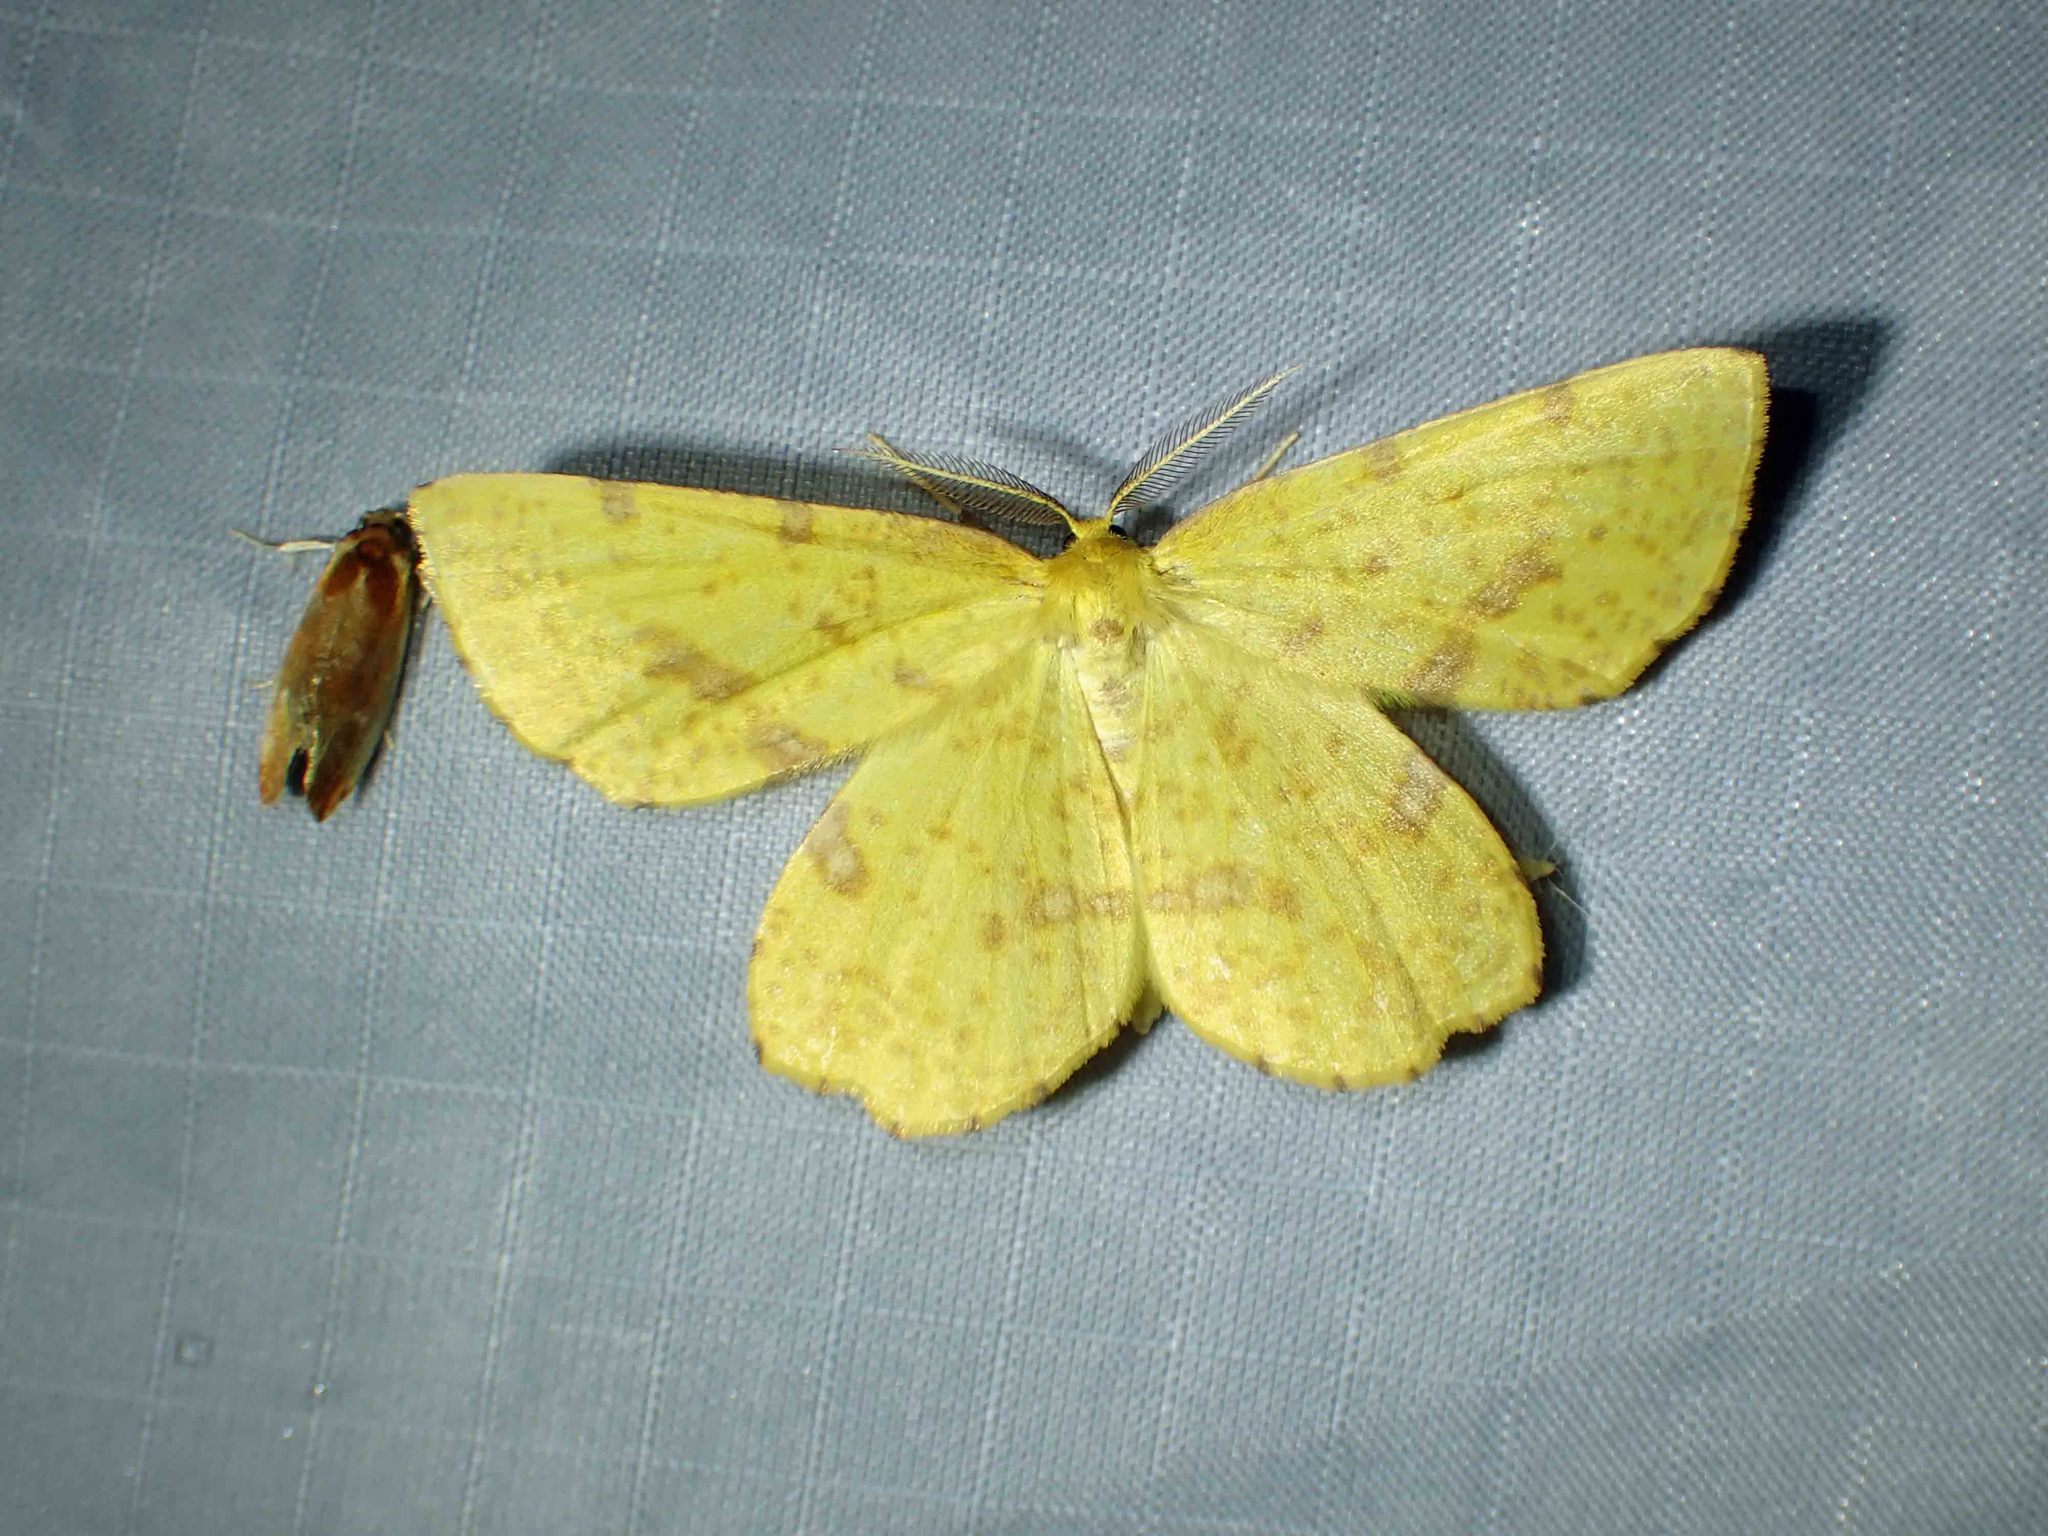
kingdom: Animalia
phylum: Arthropoda
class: Insecta
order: Lepidoptera
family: Geometridae
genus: Xanthotype
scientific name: Xanthotype
